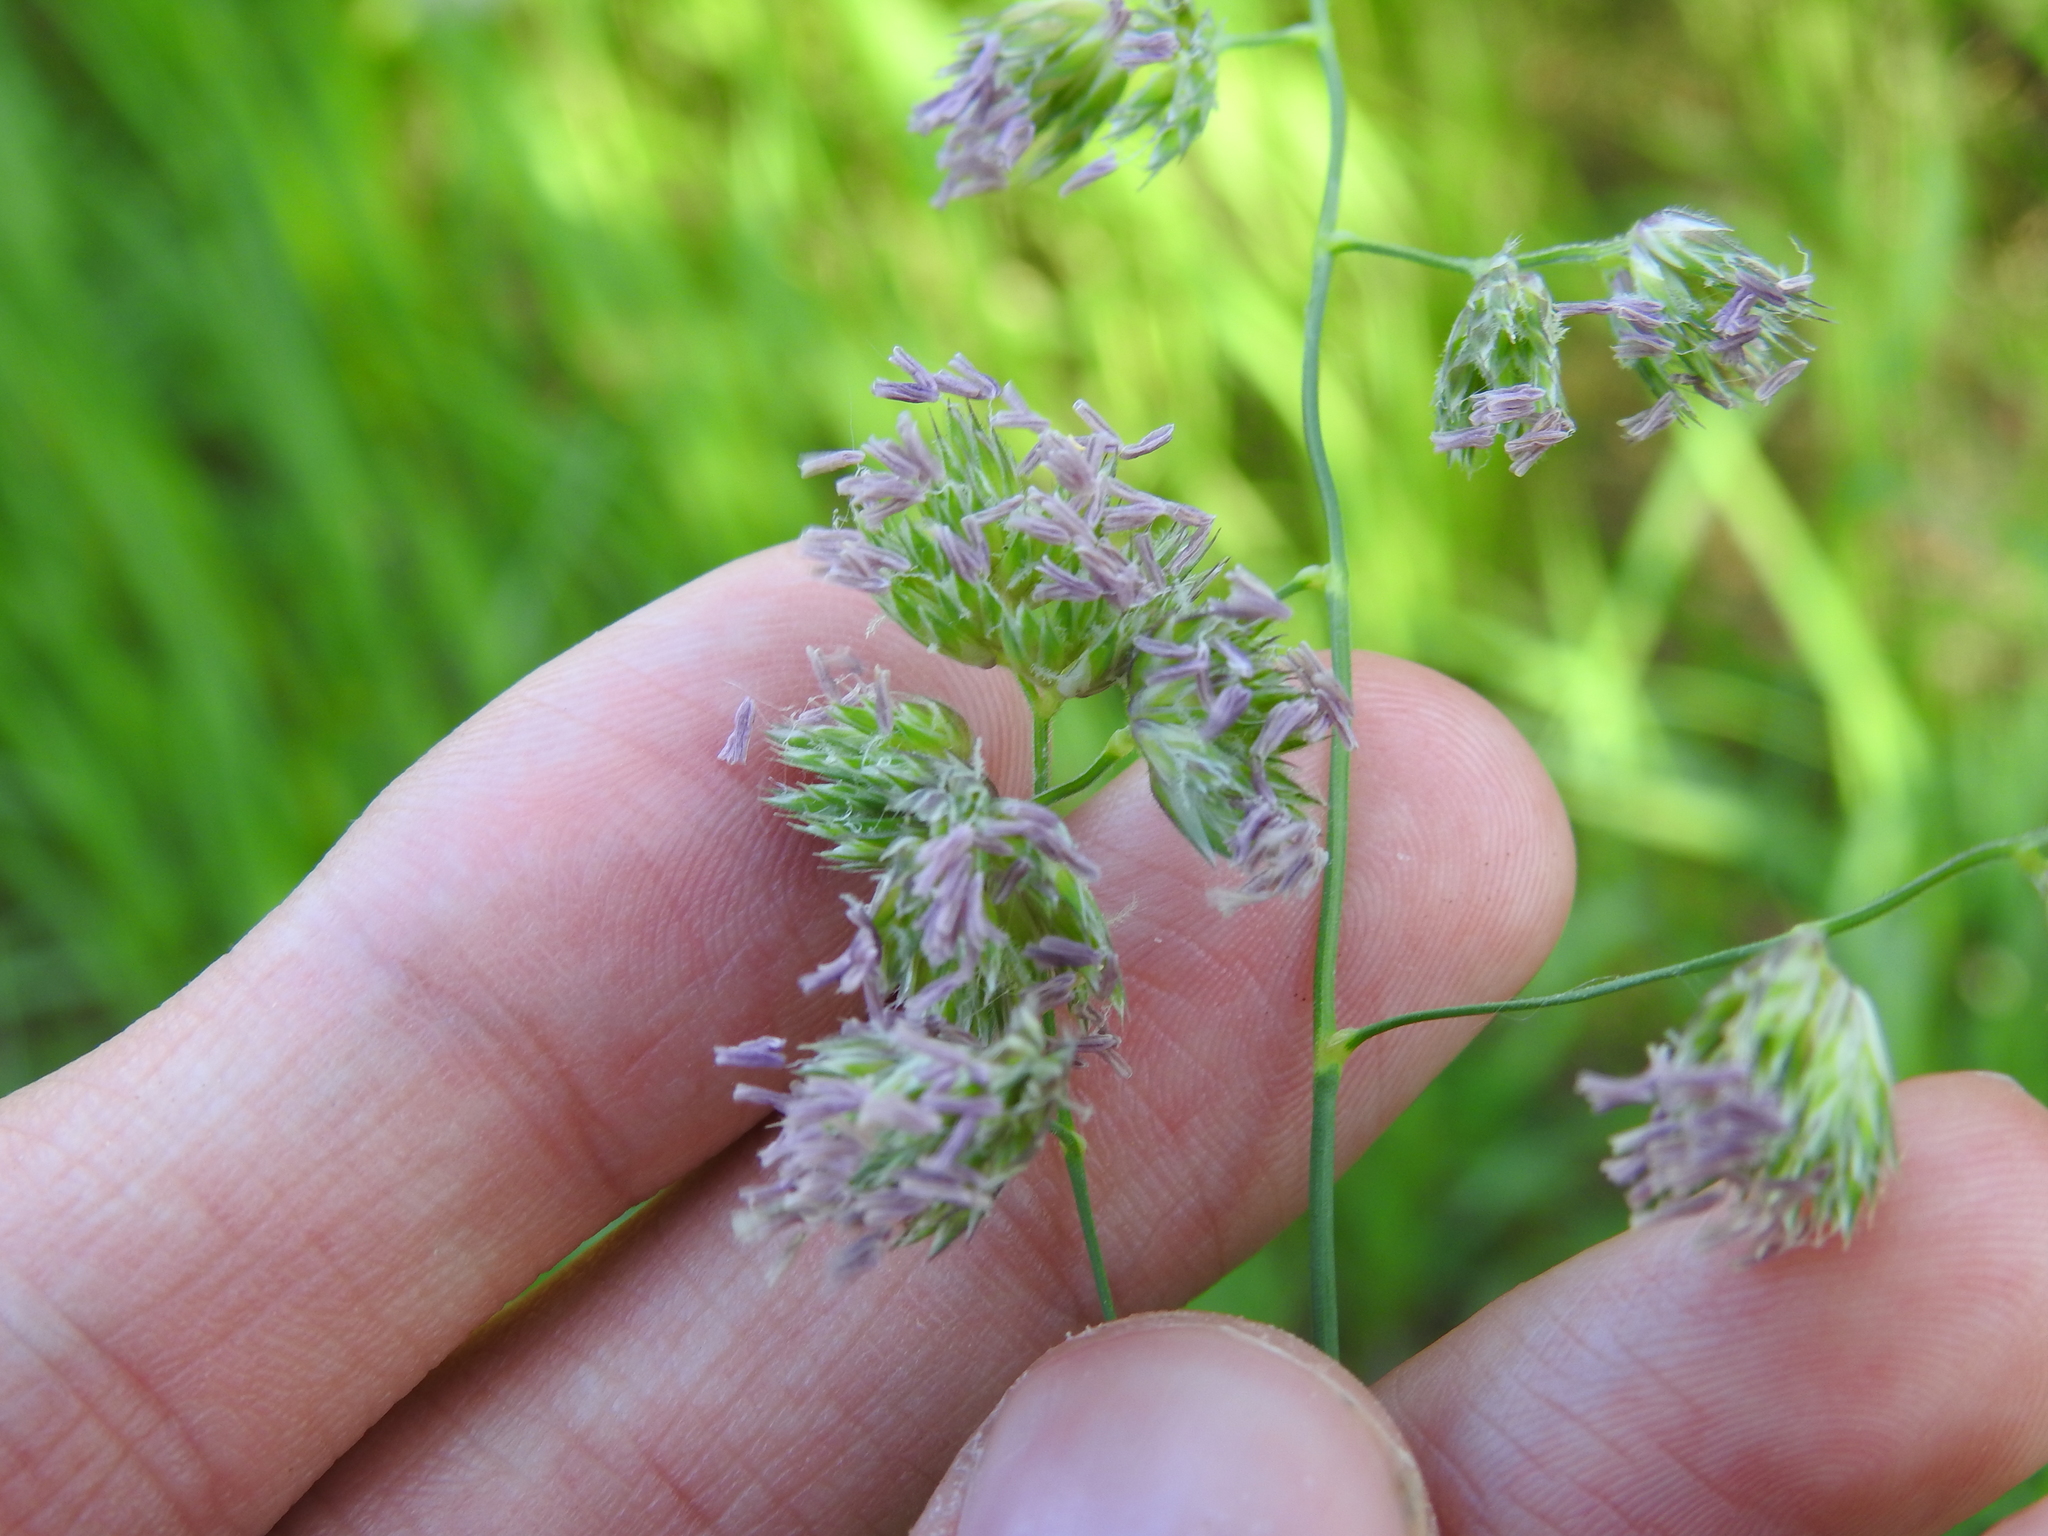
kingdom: Plantae
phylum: Tracheophyta
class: Liliopsida
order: Poales
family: Poaceae
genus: Dactylis
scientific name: Dactylis glomerata
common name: Orchardgrass
